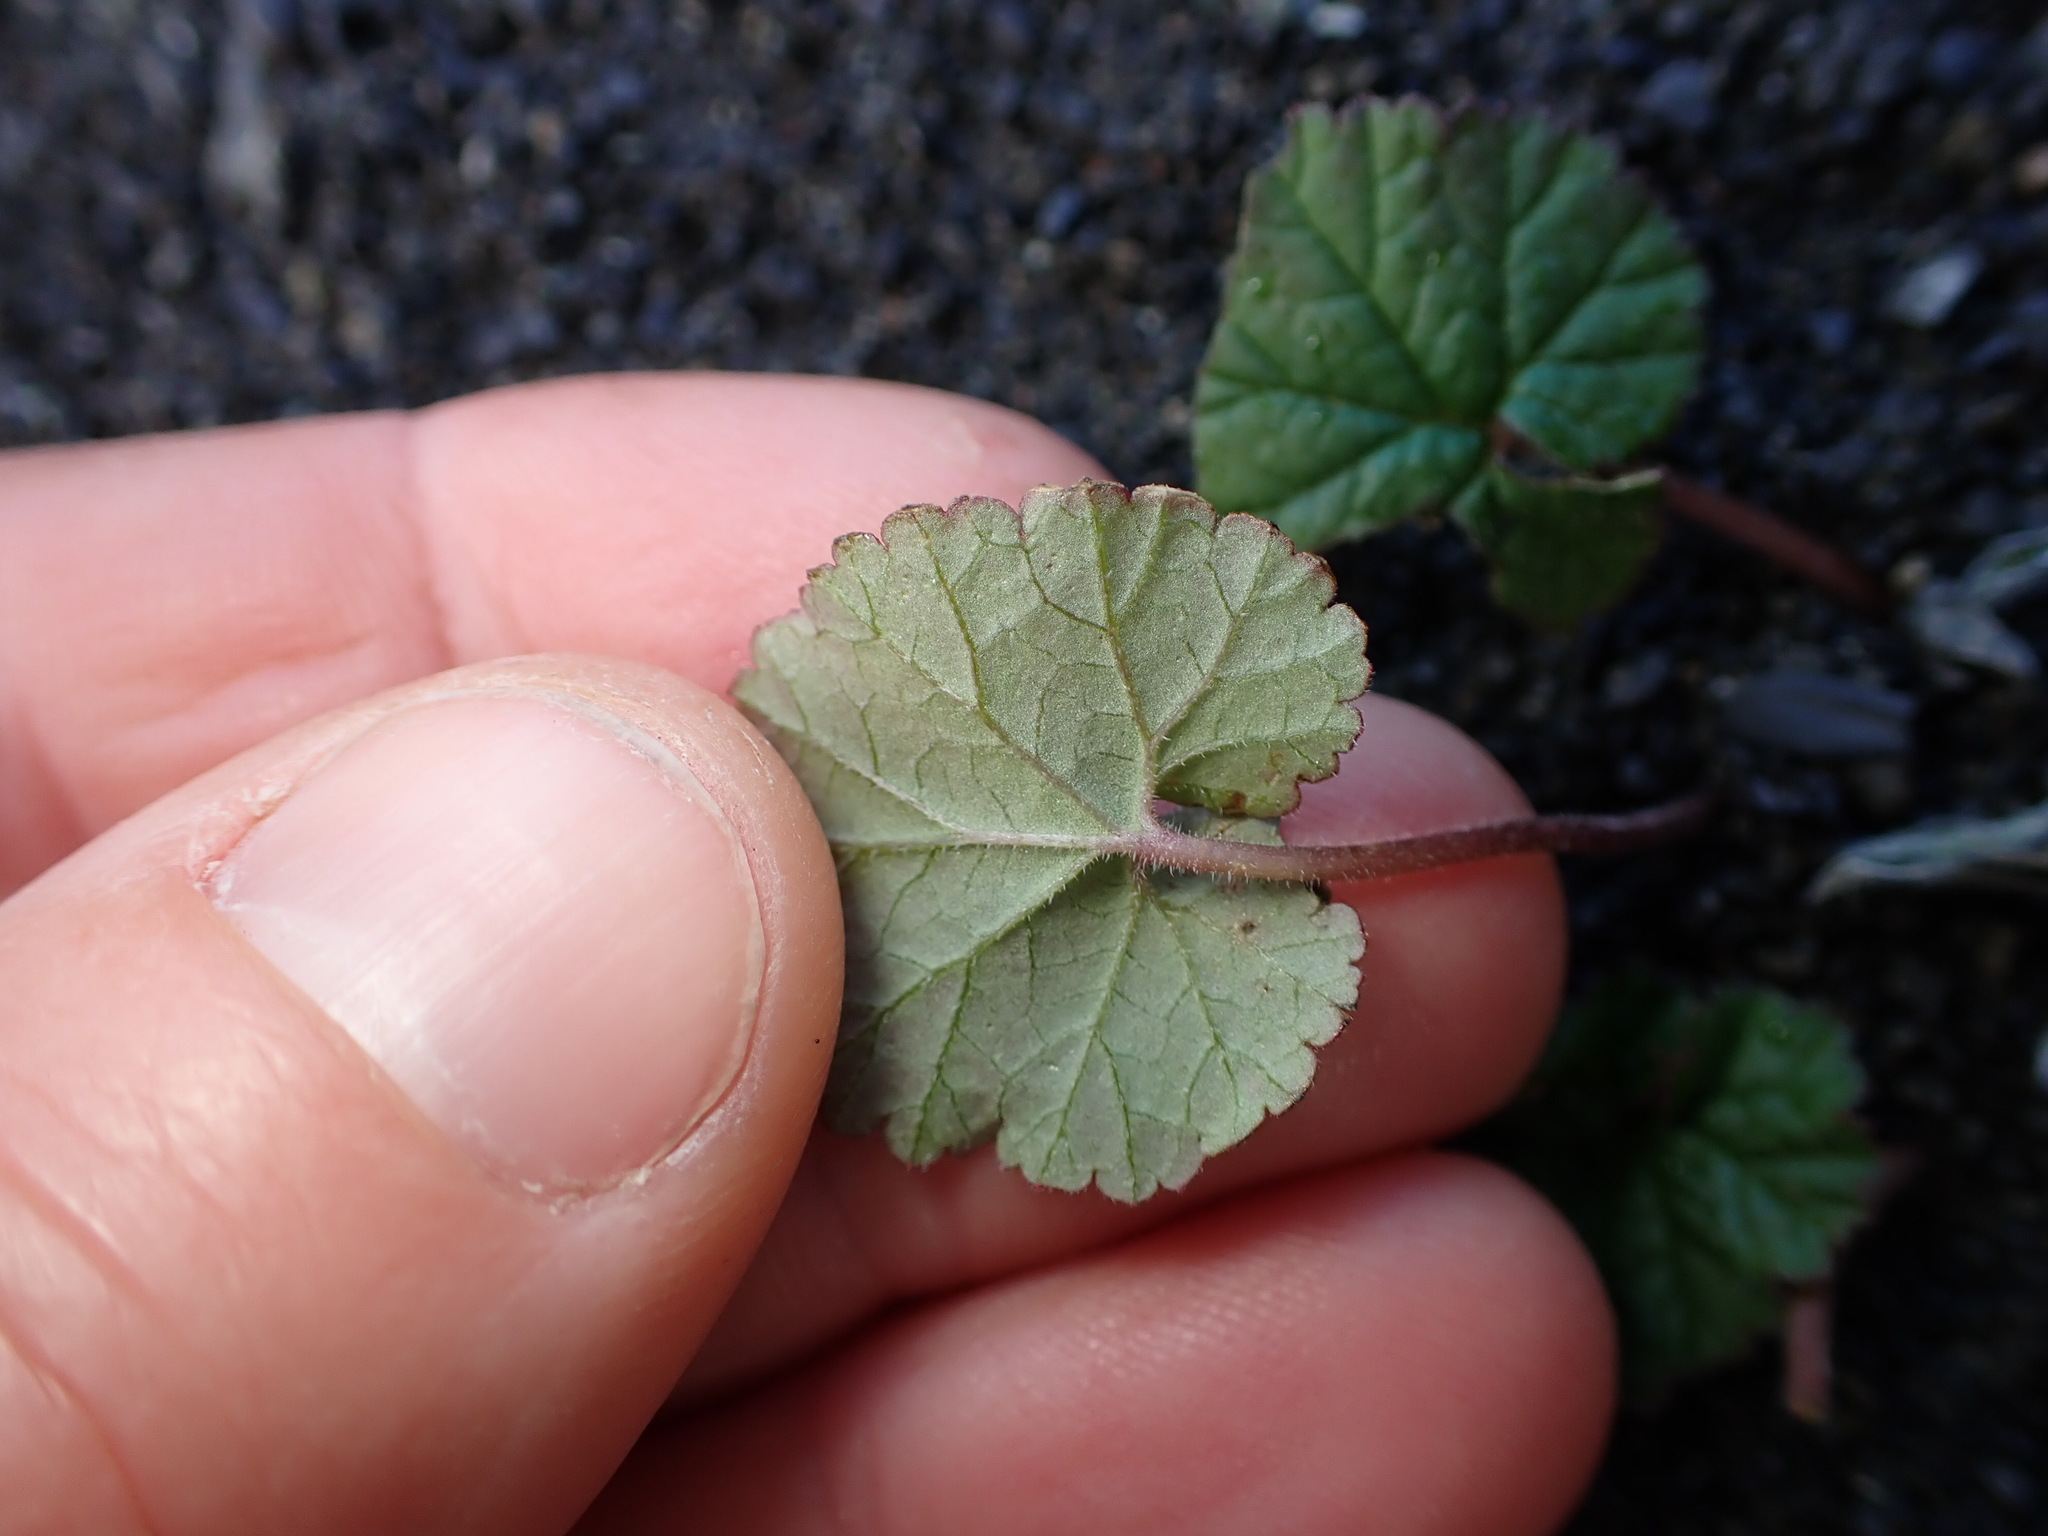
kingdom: Plantae
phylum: Tracheophyta
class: Magnoliopsida
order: Geraniales
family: Geraniaceae
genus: Pelargonium
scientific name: Pelargonium inodorum
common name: Kopata geranium
